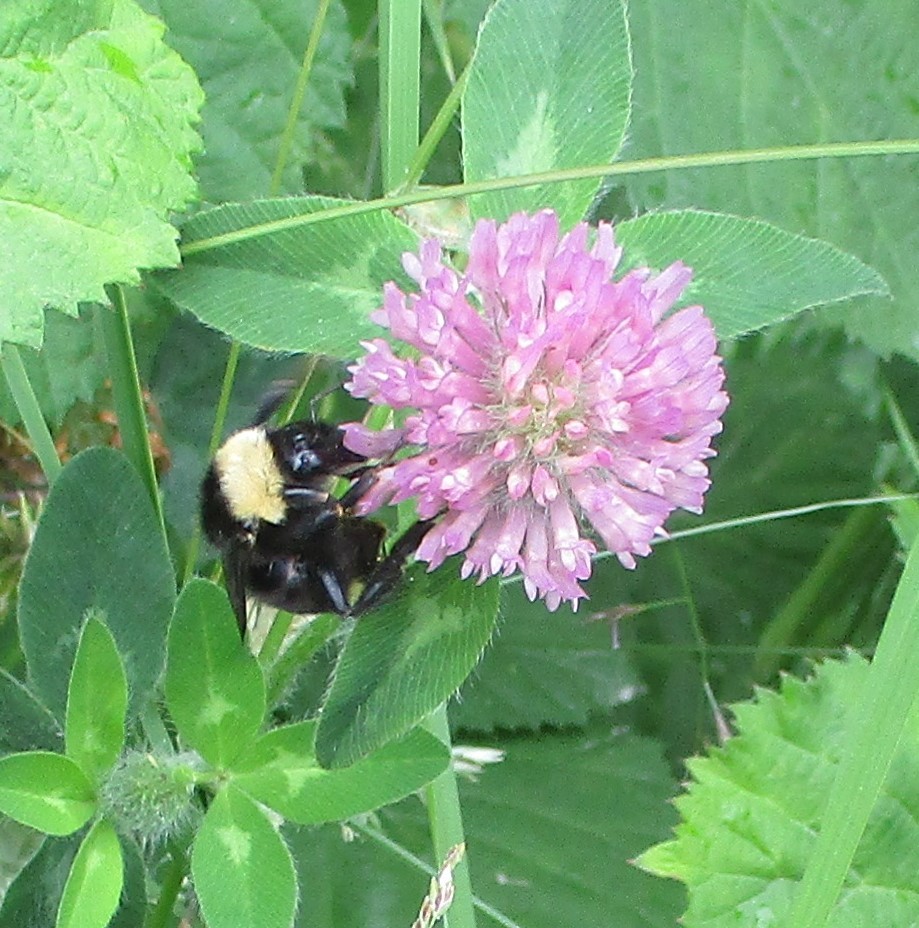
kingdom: Animalia
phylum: Arthropoda
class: Insecta
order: Hymenoptera
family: Apidae
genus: Bombus
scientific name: Bombus californicus
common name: California bumble bee
